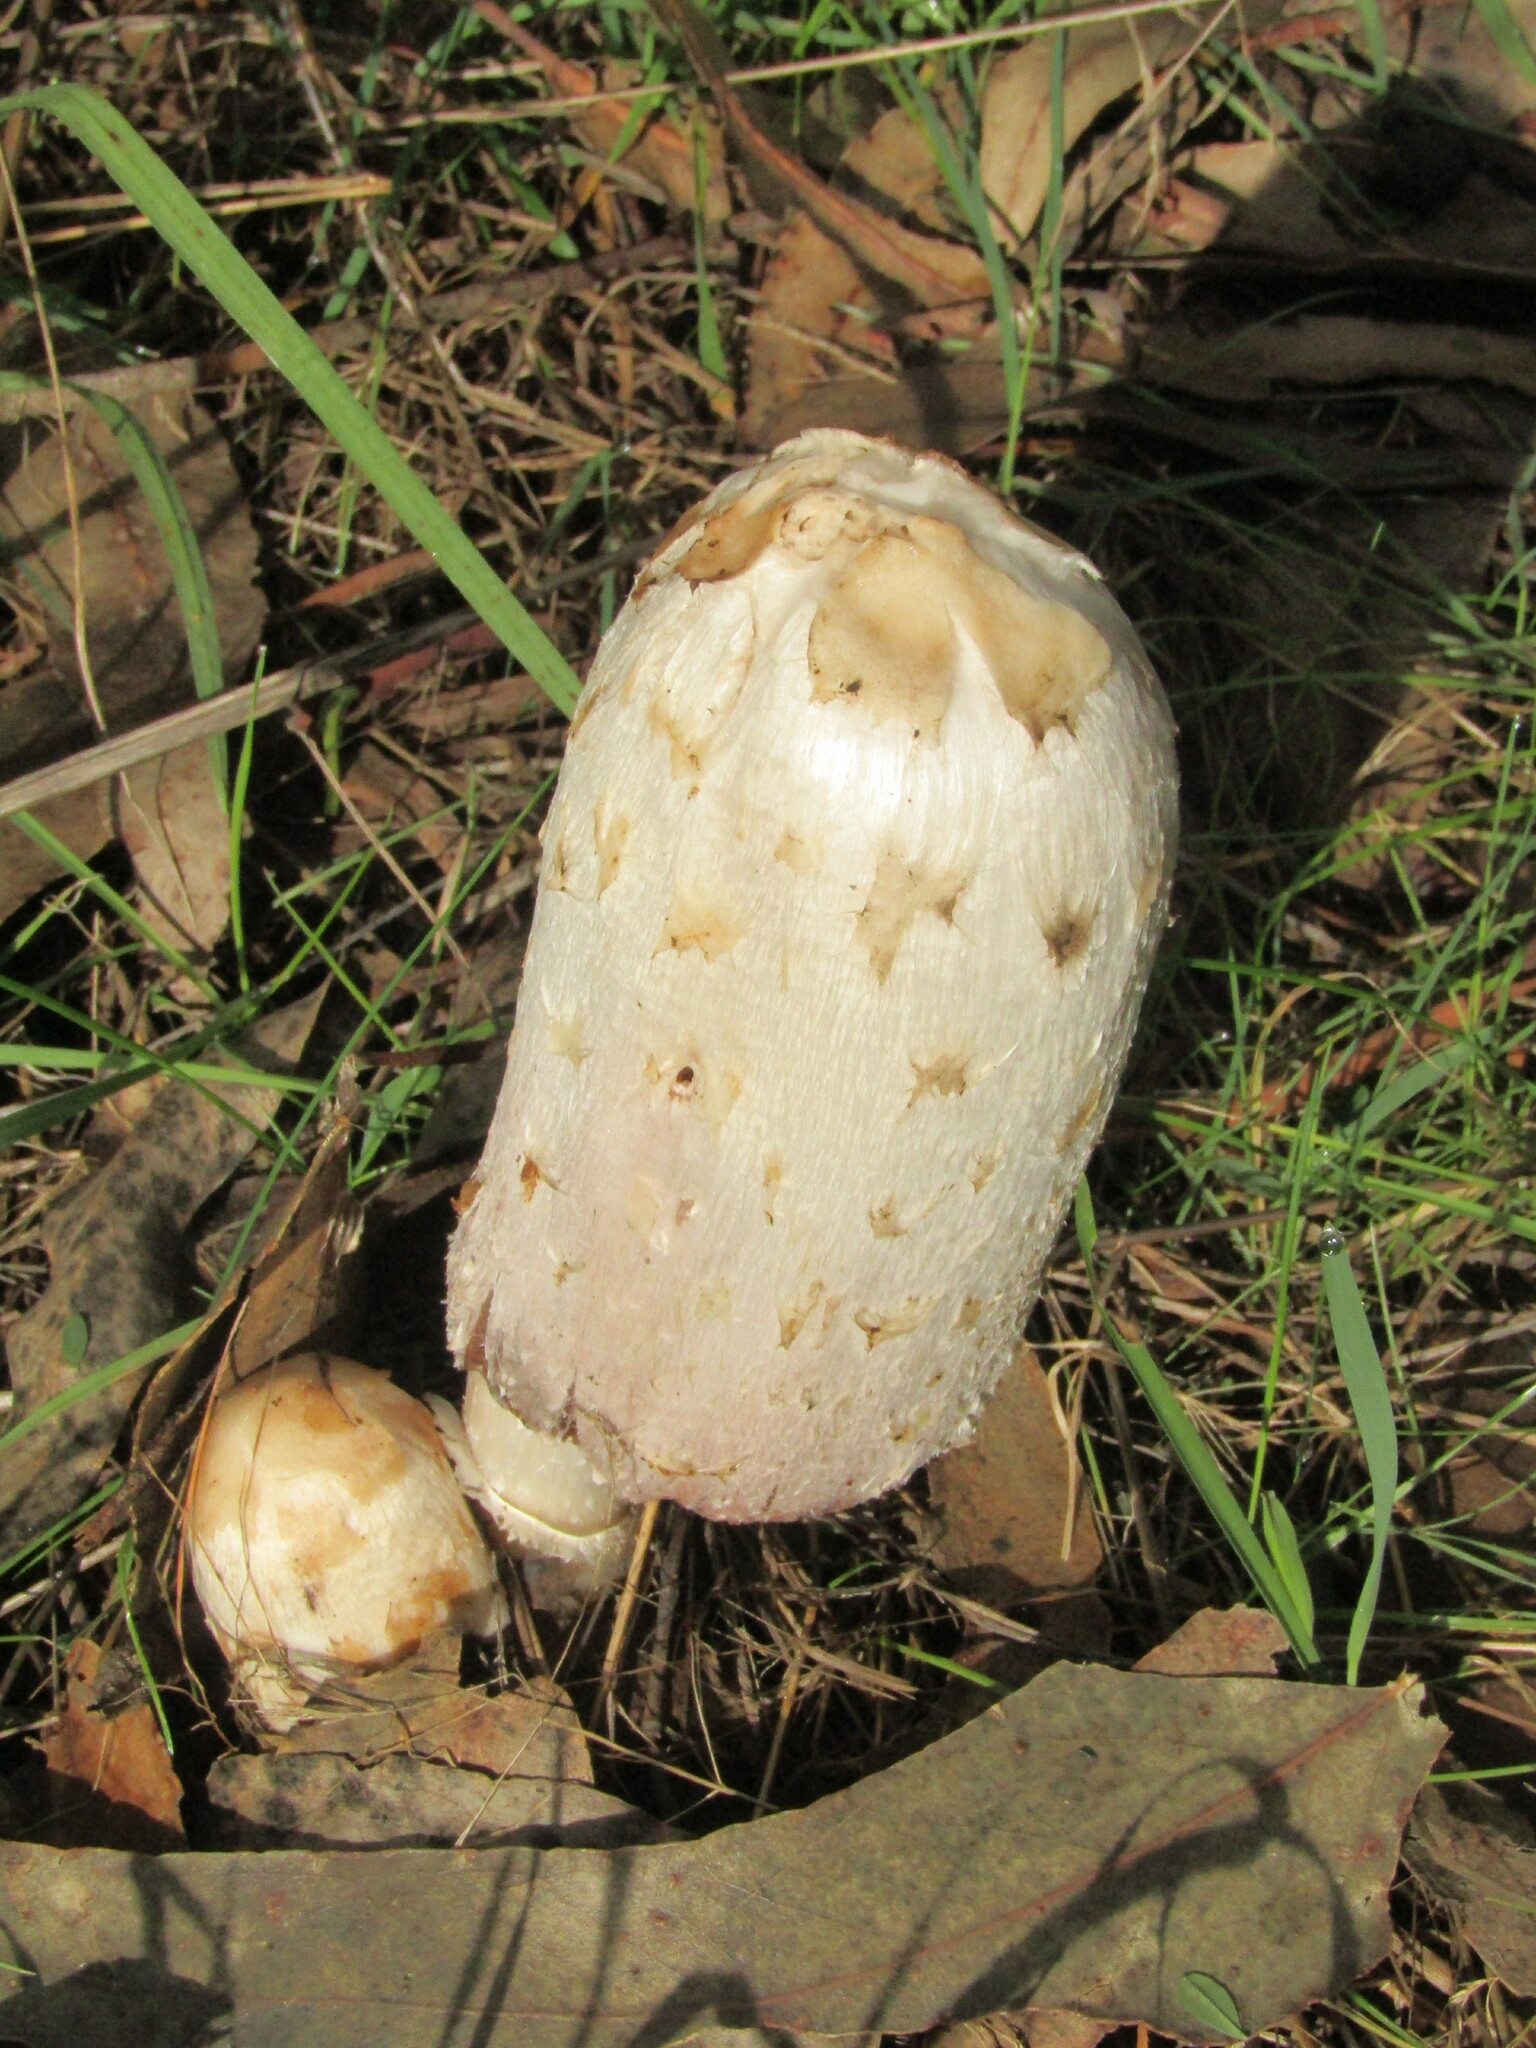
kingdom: Fungi
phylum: Basidiomycota
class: Agaricomycetes
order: Agaricales
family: Agaricaceae
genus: Coprinus
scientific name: Coprinus comatus
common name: Lawyer's wig
